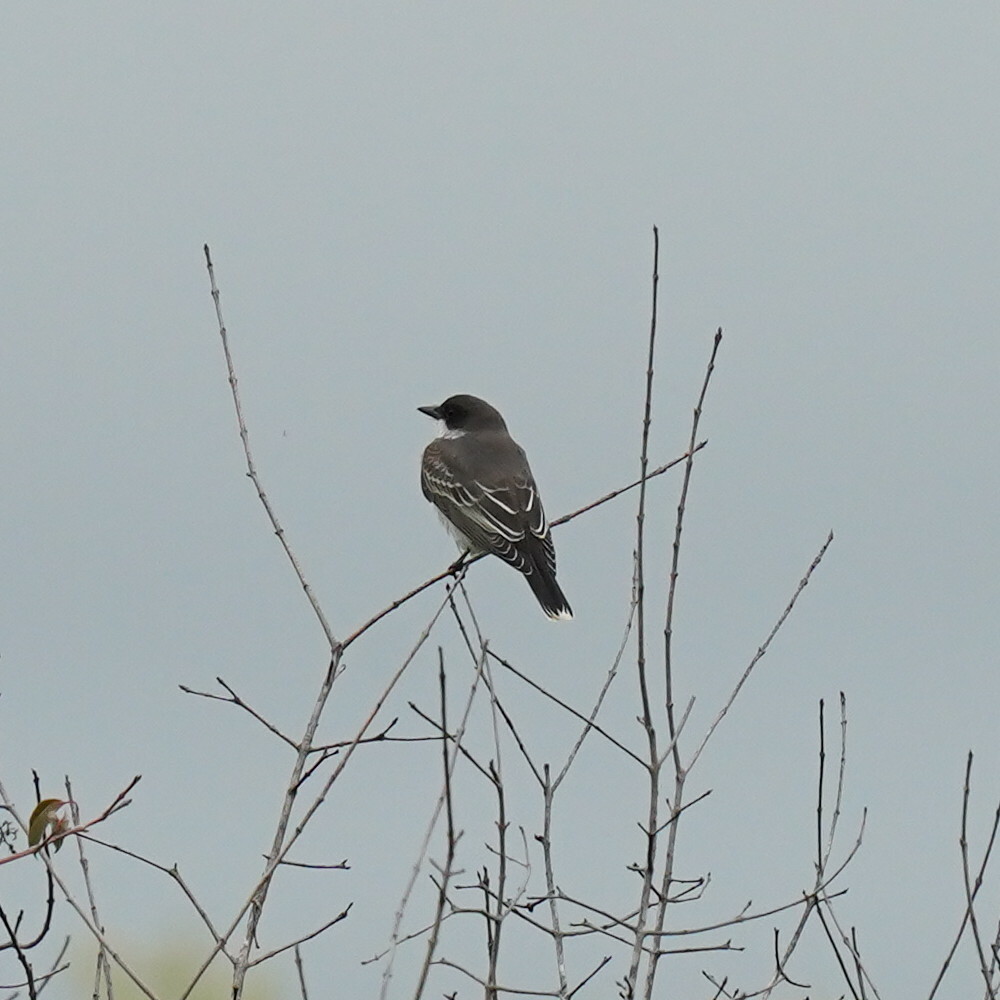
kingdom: Animalia
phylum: Chordata
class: Aves
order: Passeriformes
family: Tyrannidae
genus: Tyrannus
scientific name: Tyrannus tyrannus
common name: Eastern kingbird
